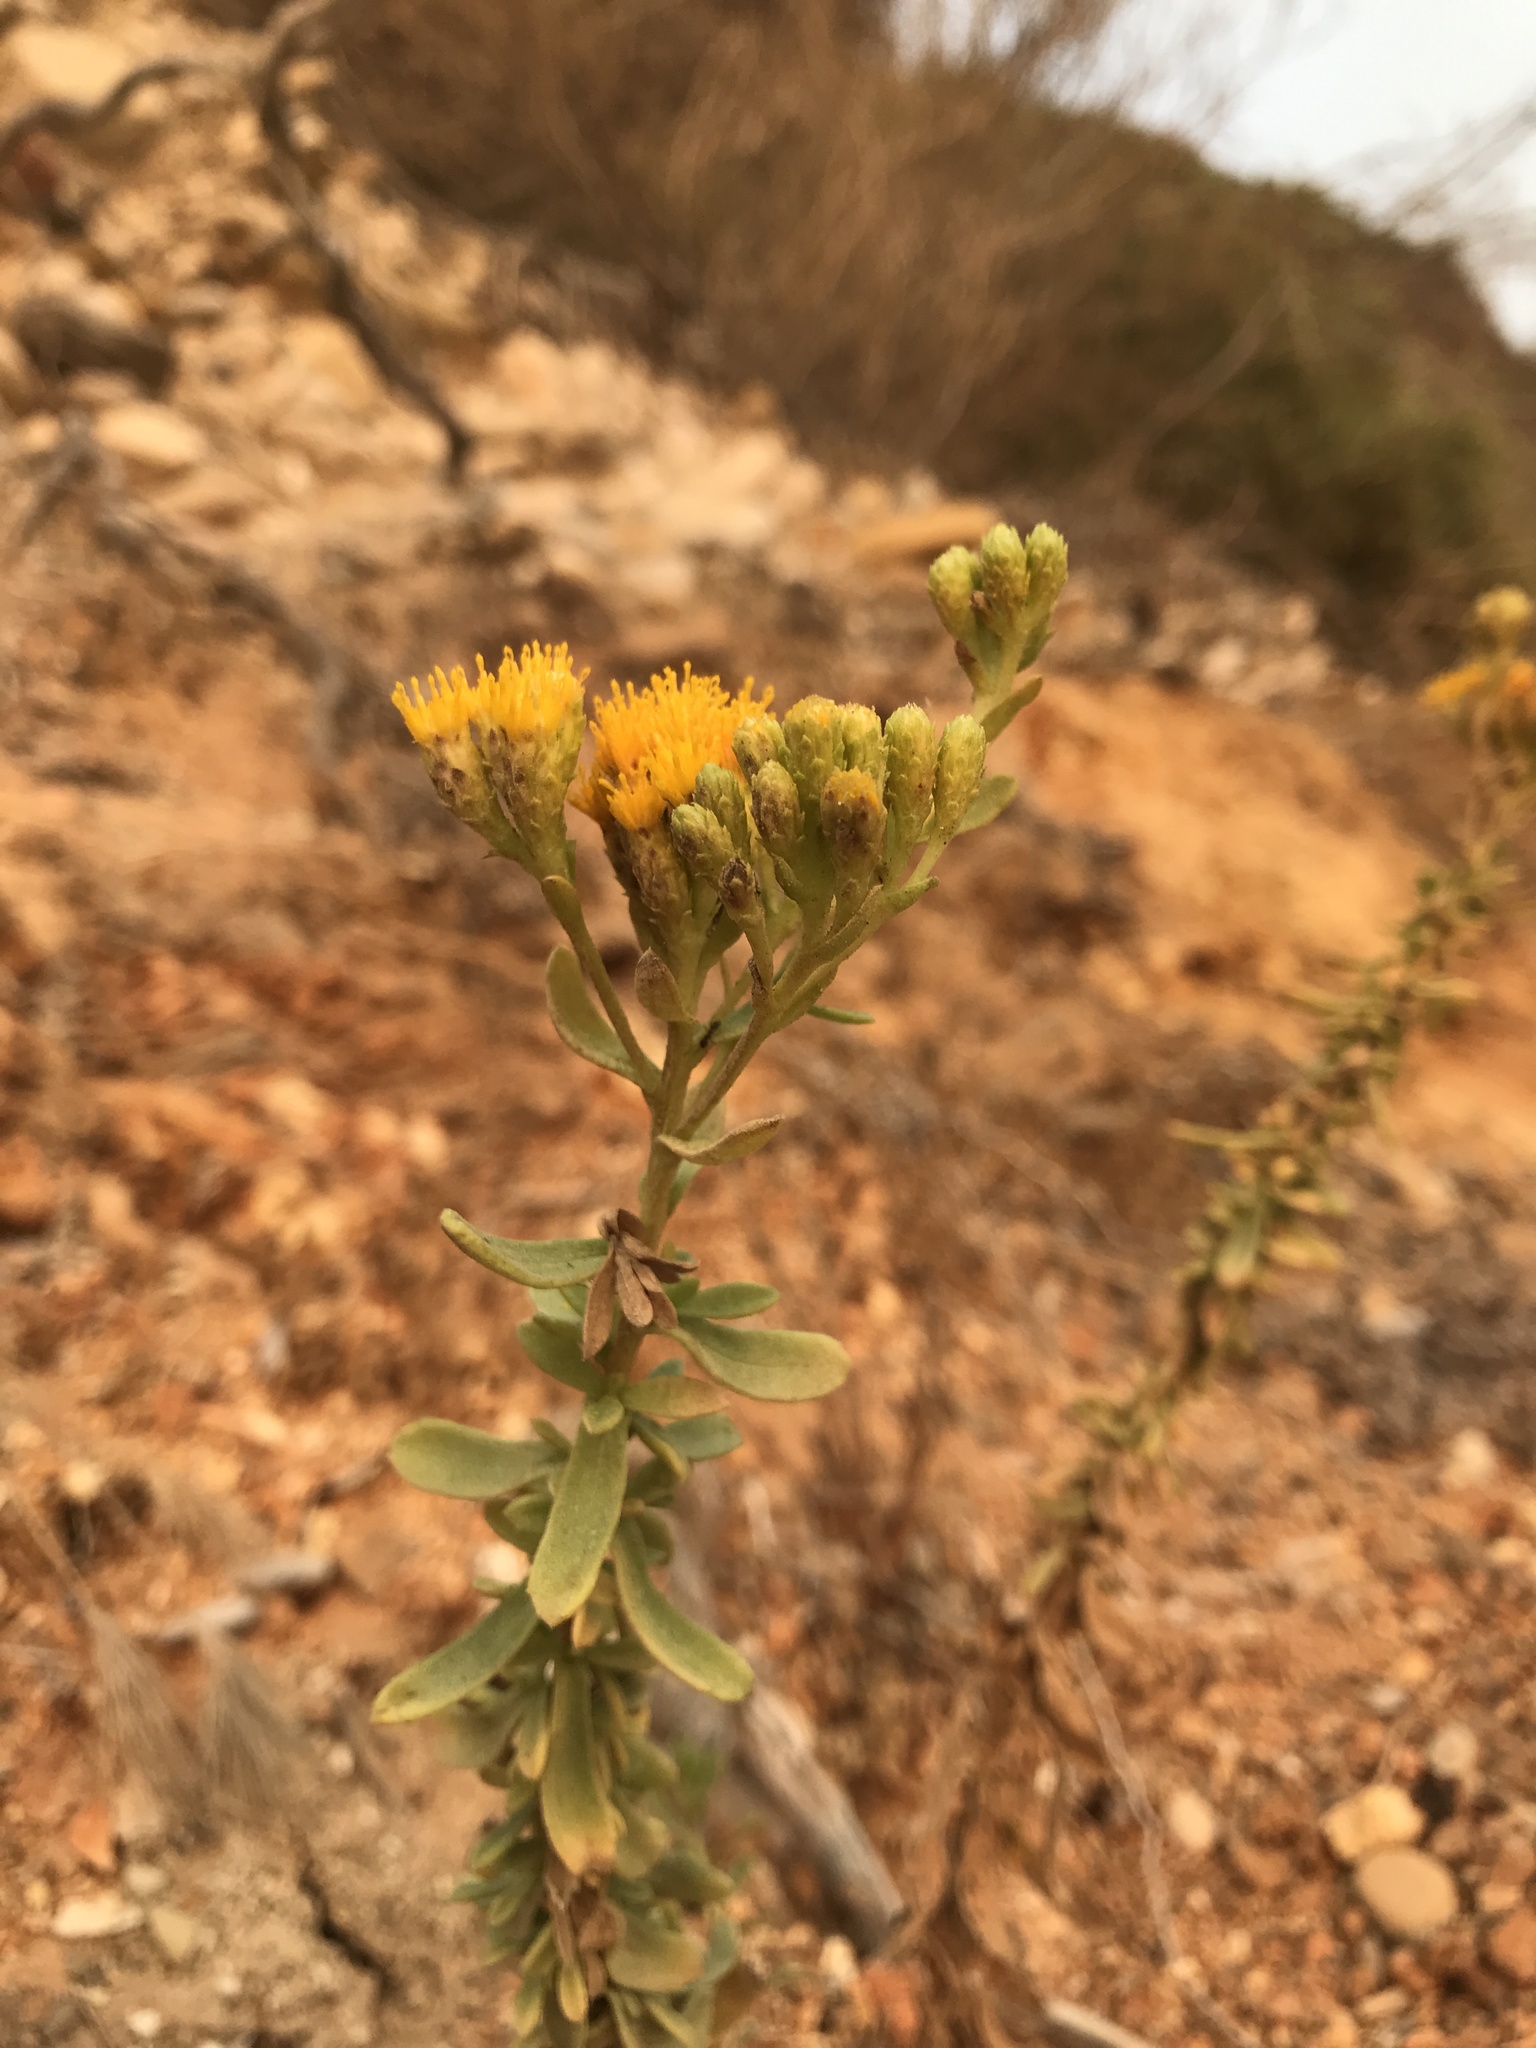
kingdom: Plantae
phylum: Tracheophyta
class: Magnoliopsida
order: Asterales
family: Asteraceae
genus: Isocoma
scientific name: Isocoma menziesii
